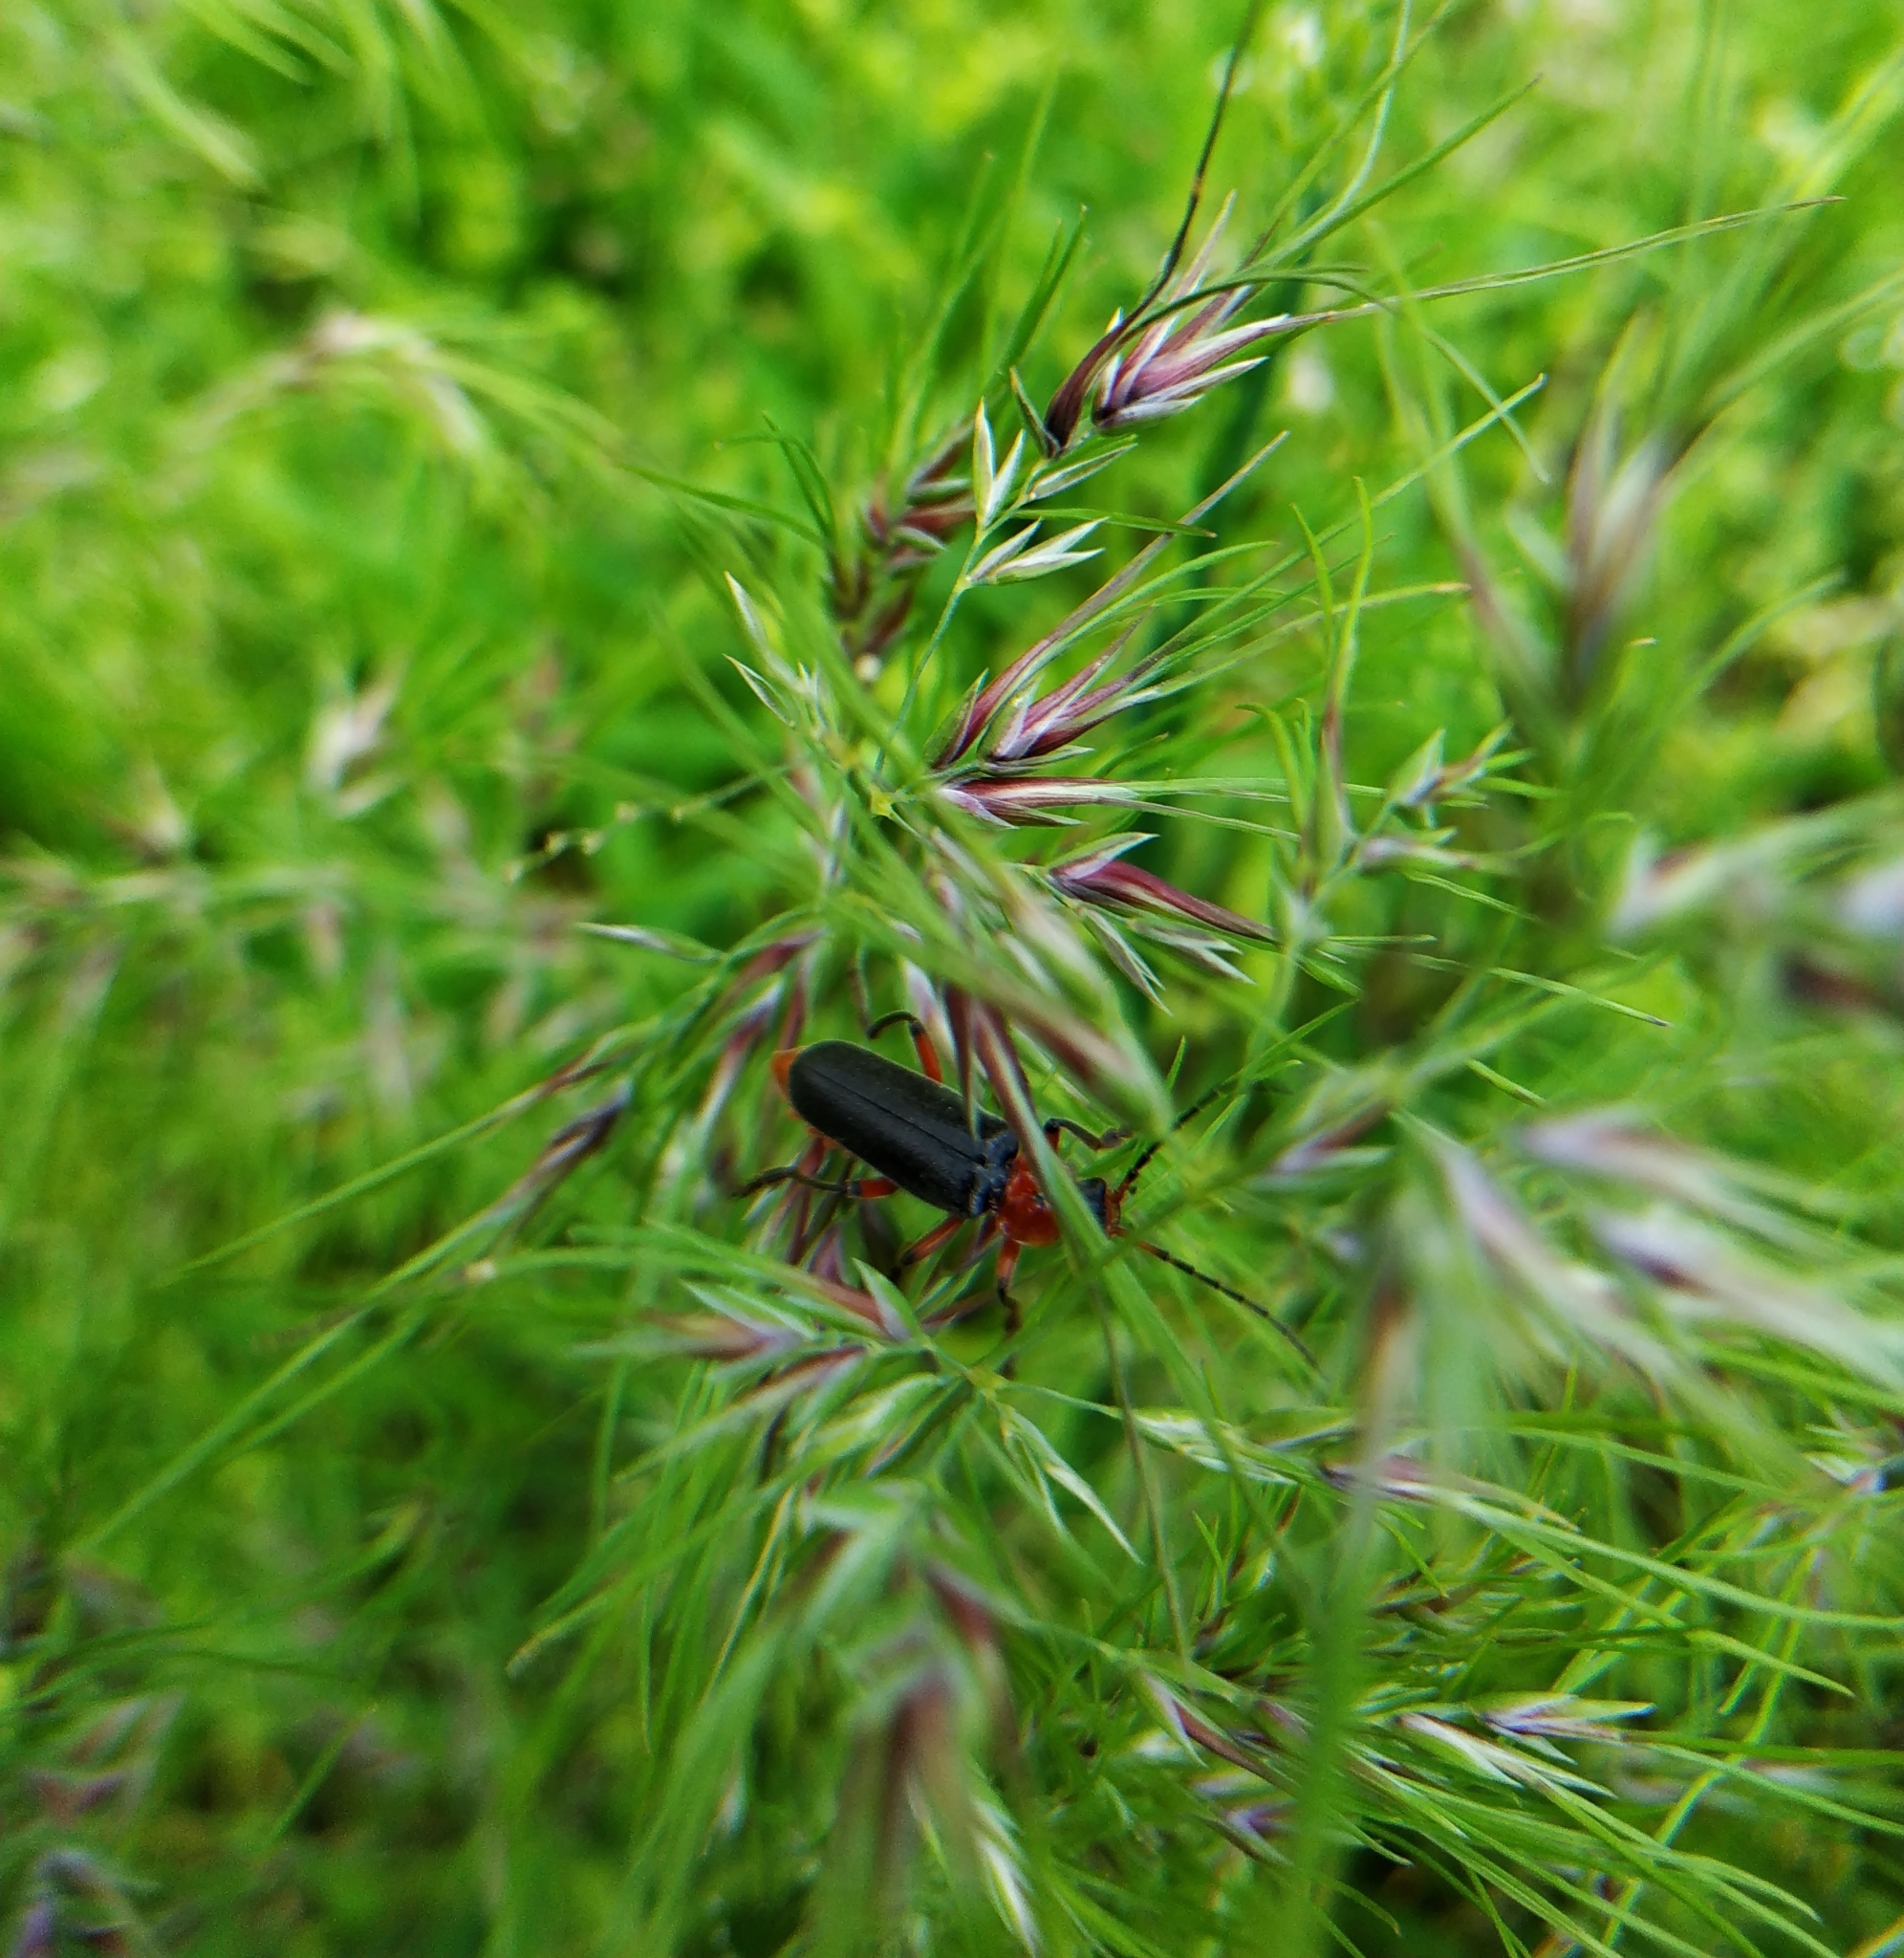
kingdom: Animalia
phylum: Arthropoda
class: Insecta
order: Coleoptera
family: Cantharidae
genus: Cantharis
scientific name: Cantharis rustica
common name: Soldier beetle
